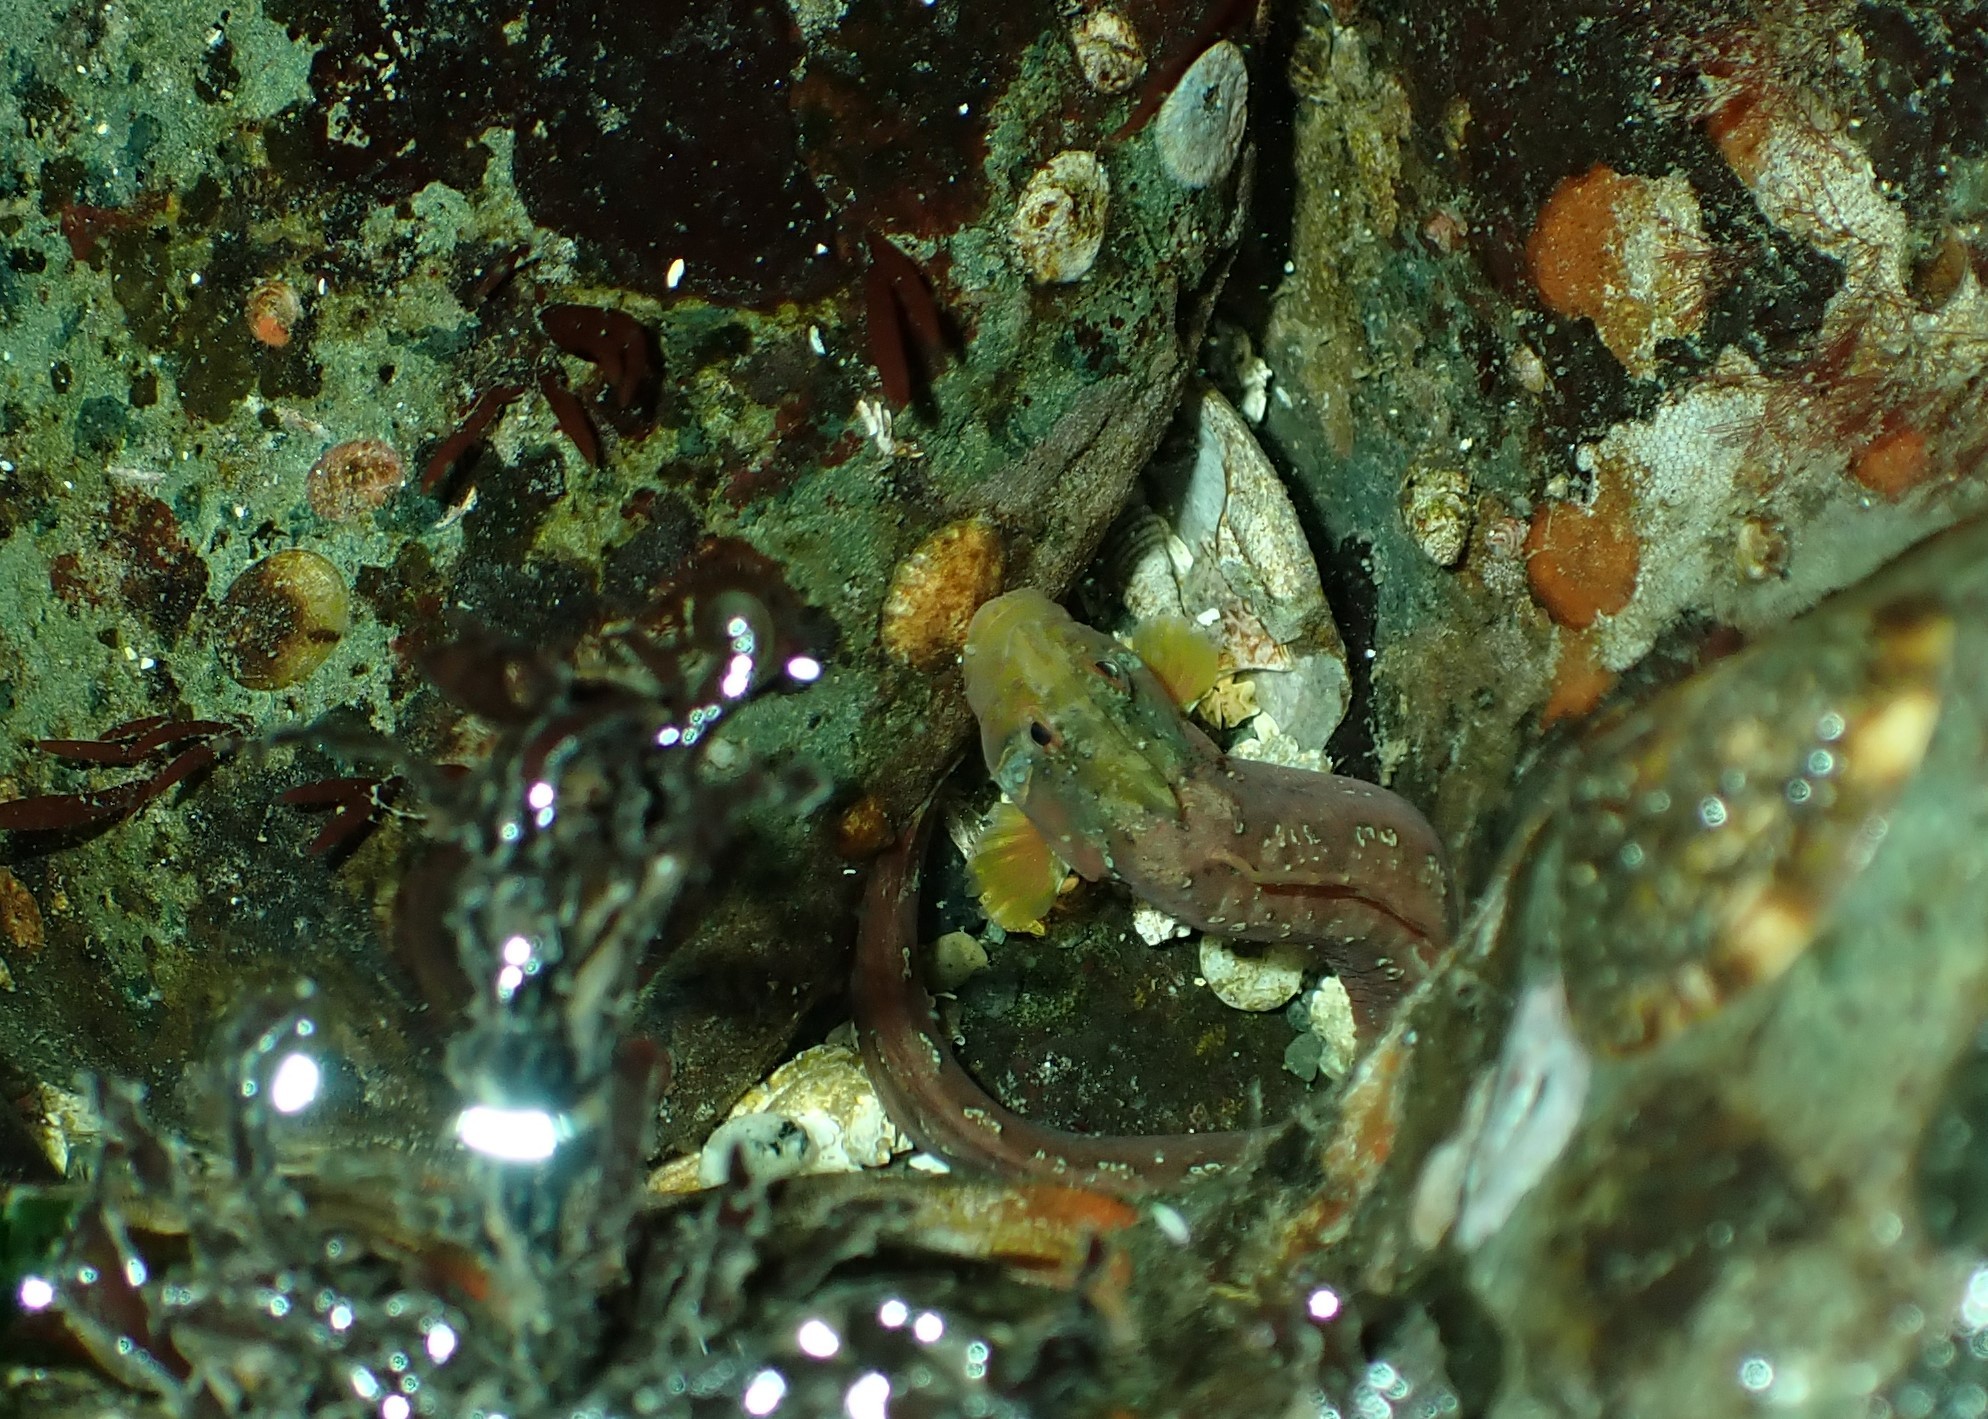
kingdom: Animalia
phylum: Chordata
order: Perciformes
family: Stichaeidae
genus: Anoplarchus
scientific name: Anoplarchus purpurescens
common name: High cockscomb
